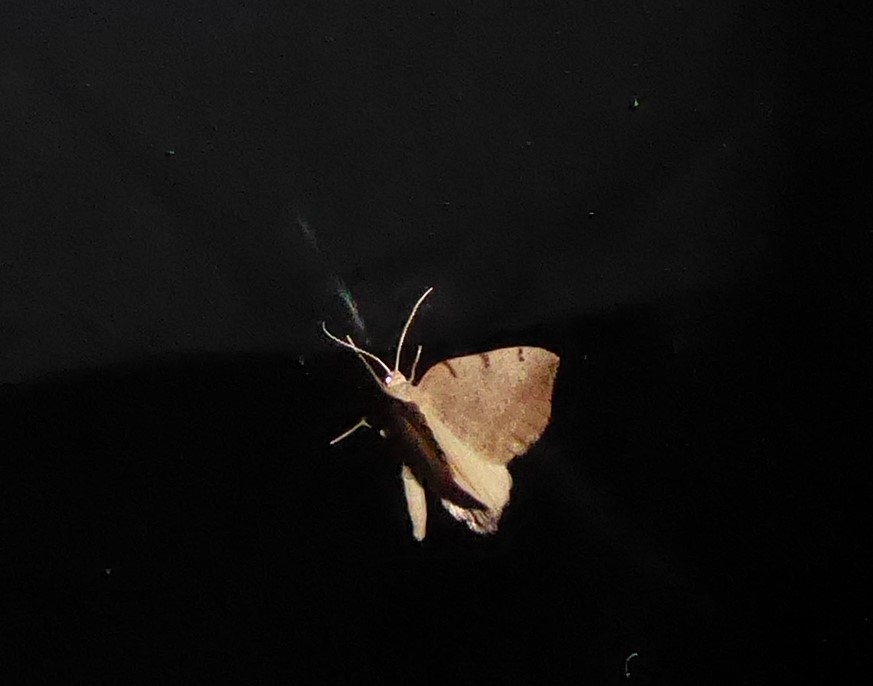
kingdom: Animalia
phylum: Arthropoda
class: Insecta
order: Lepidoptera
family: Geometridae
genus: Sestra
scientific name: Sestra humeraria
